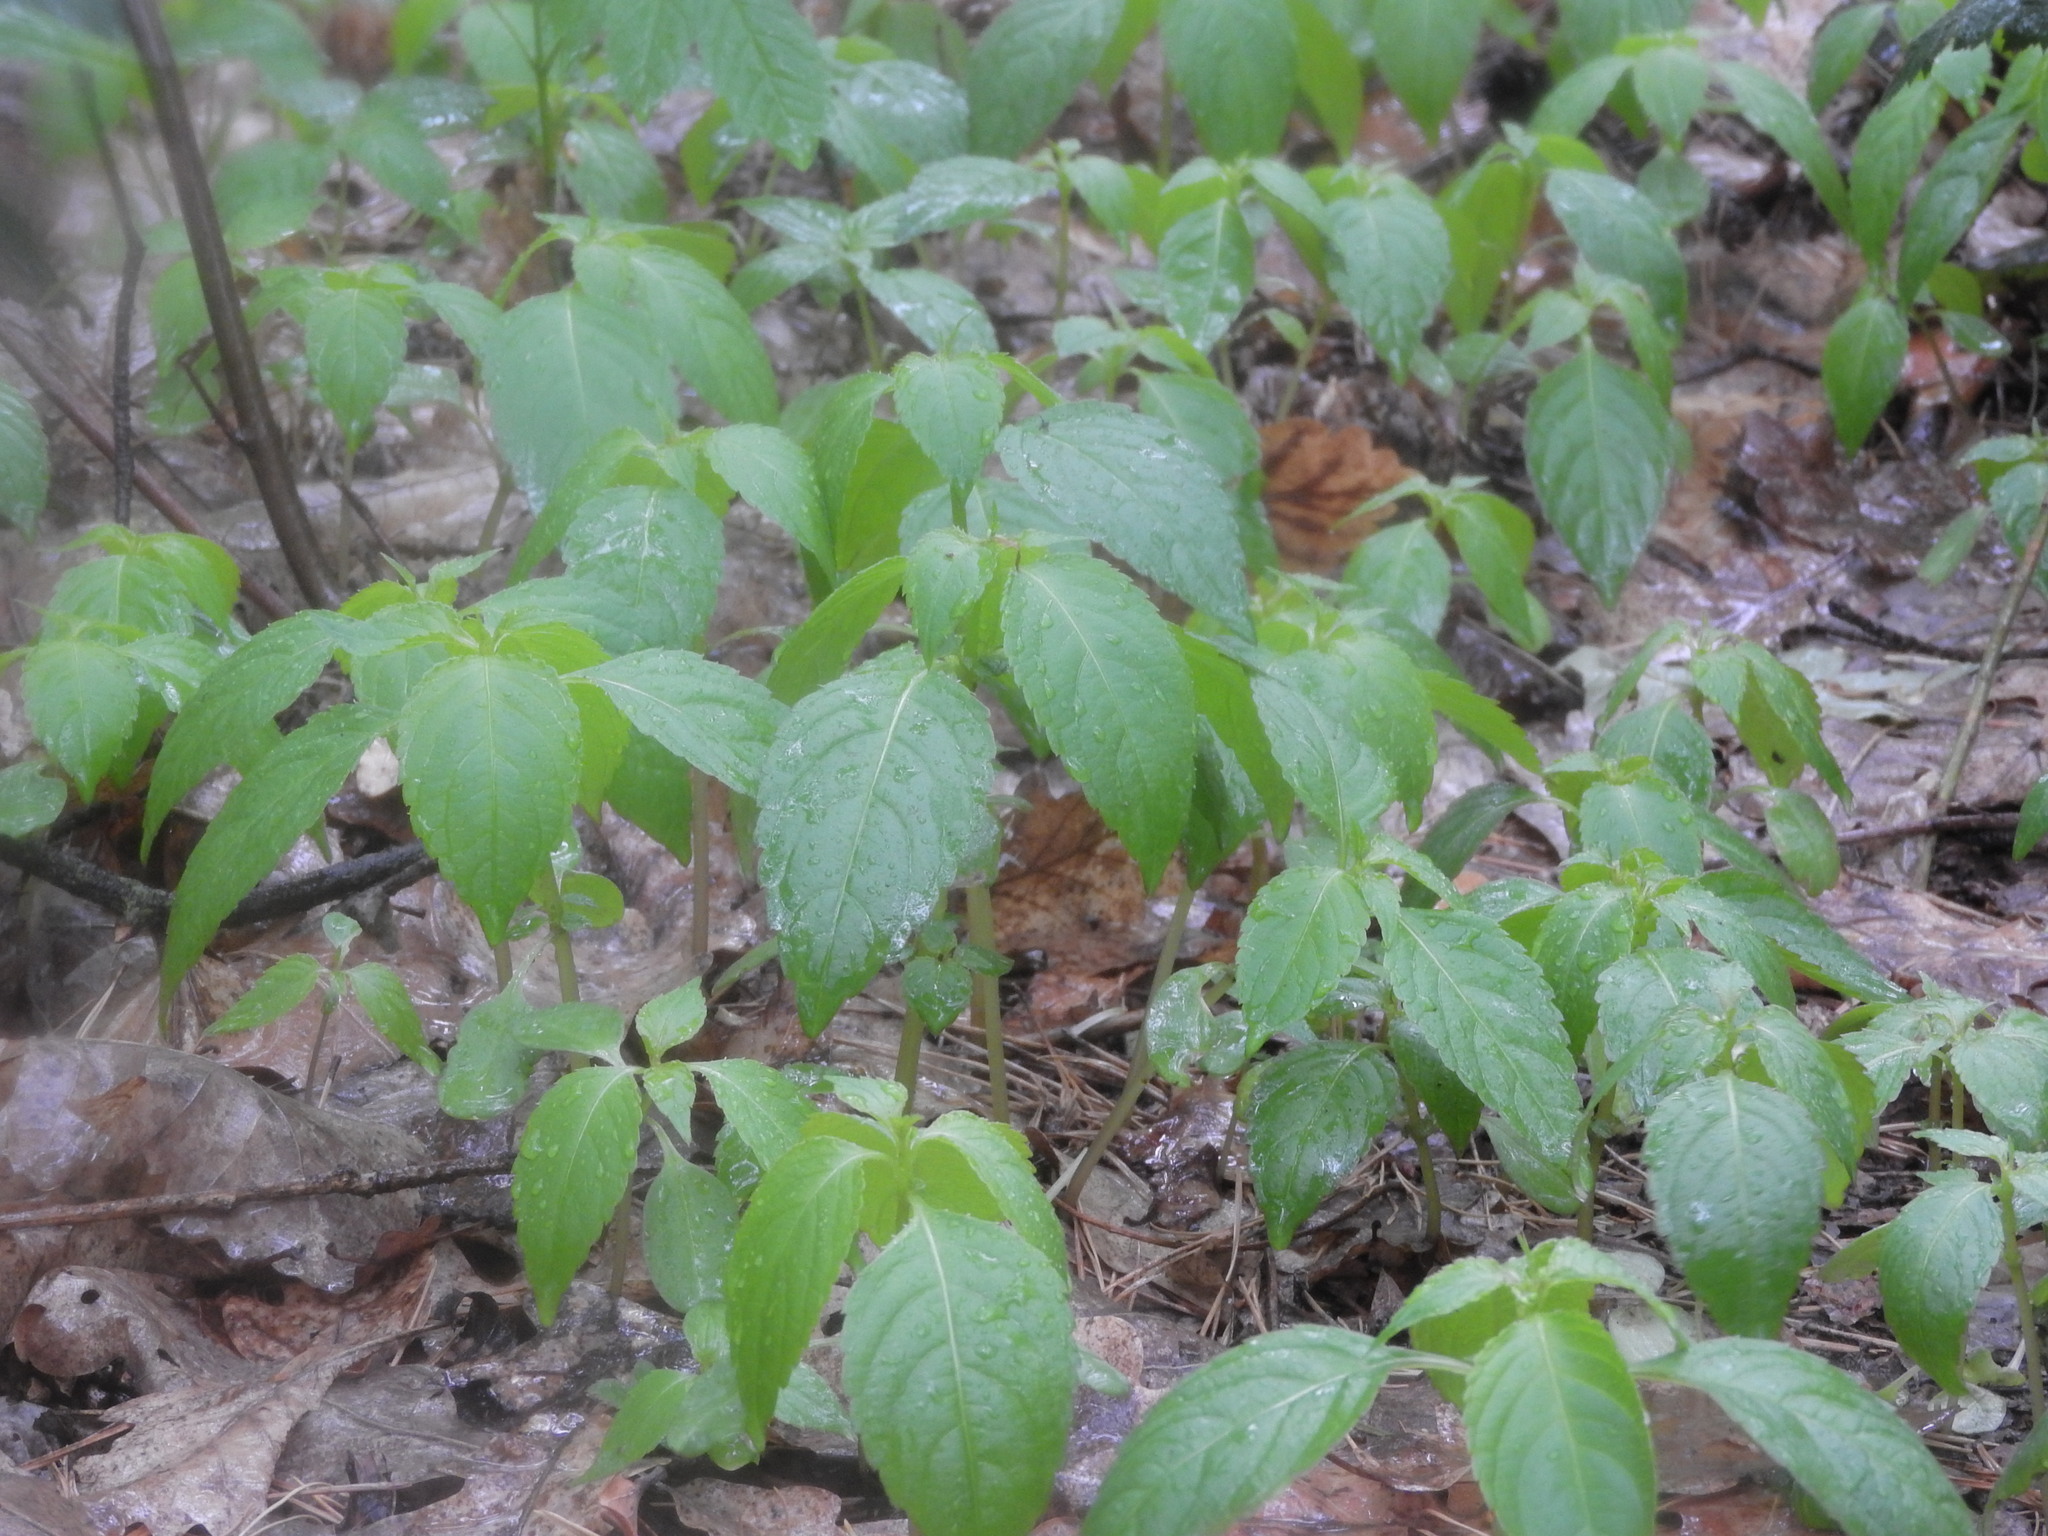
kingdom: Plantae
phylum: Tracheophyta
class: Magnoliopsida
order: Ericales
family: Balsaminaceae
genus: Impatiens
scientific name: Impatiens parviflora
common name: Small balsam
